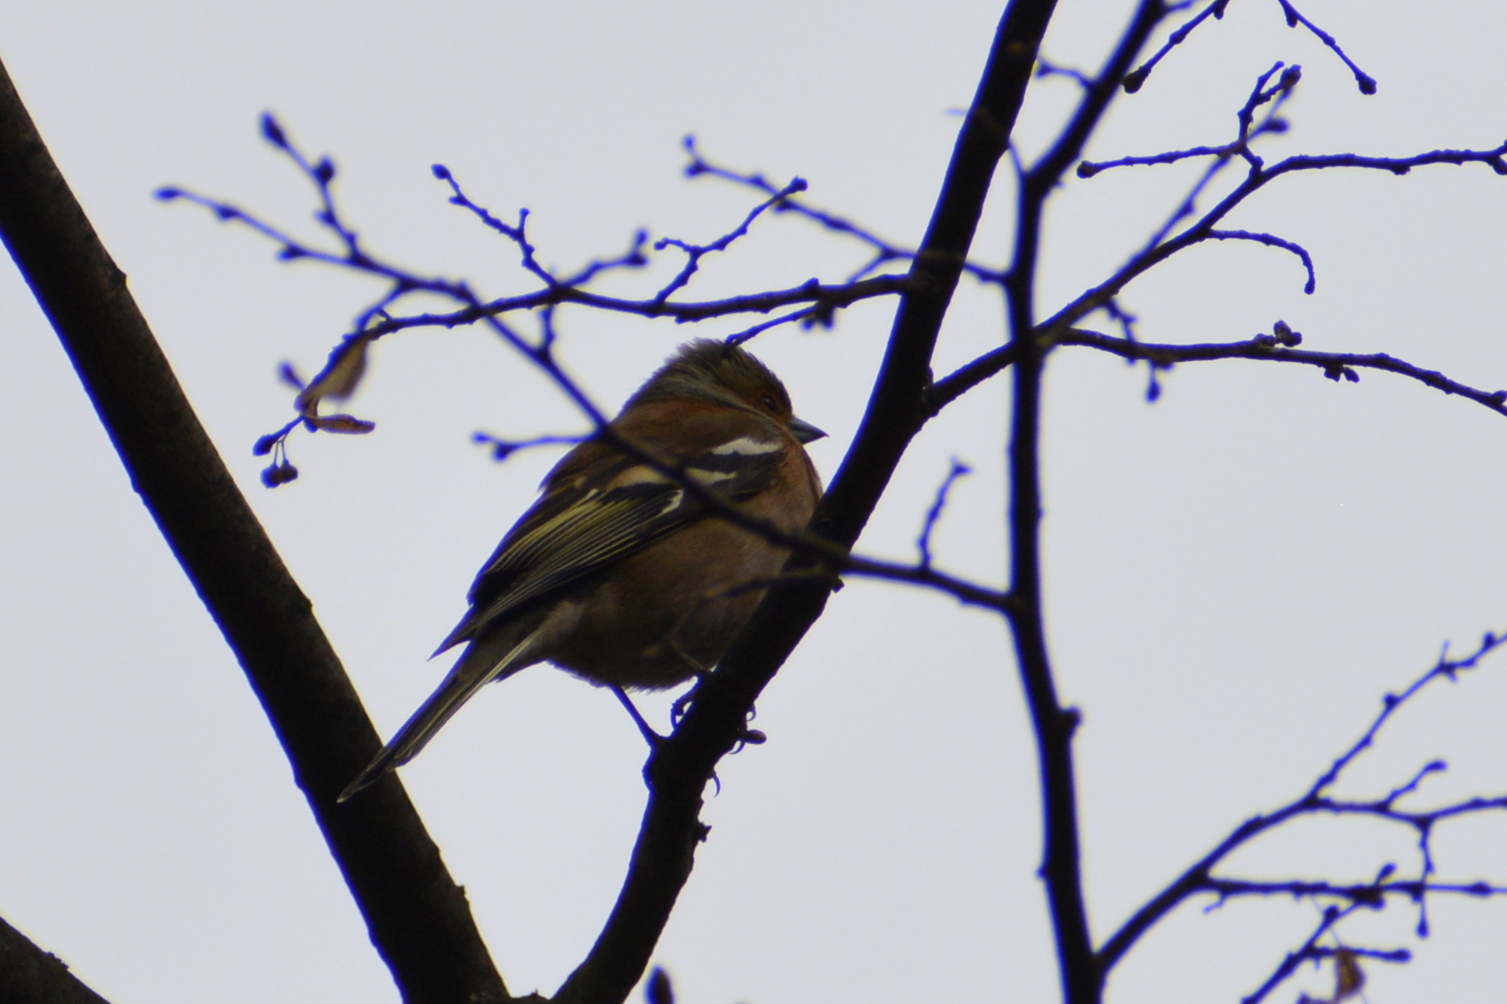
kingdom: Animalia
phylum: Chordata
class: Aves
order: Passeriformes
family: Fringillidae
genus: Fringilla
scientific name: Fringilla coelebs
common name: Common chaffinch
